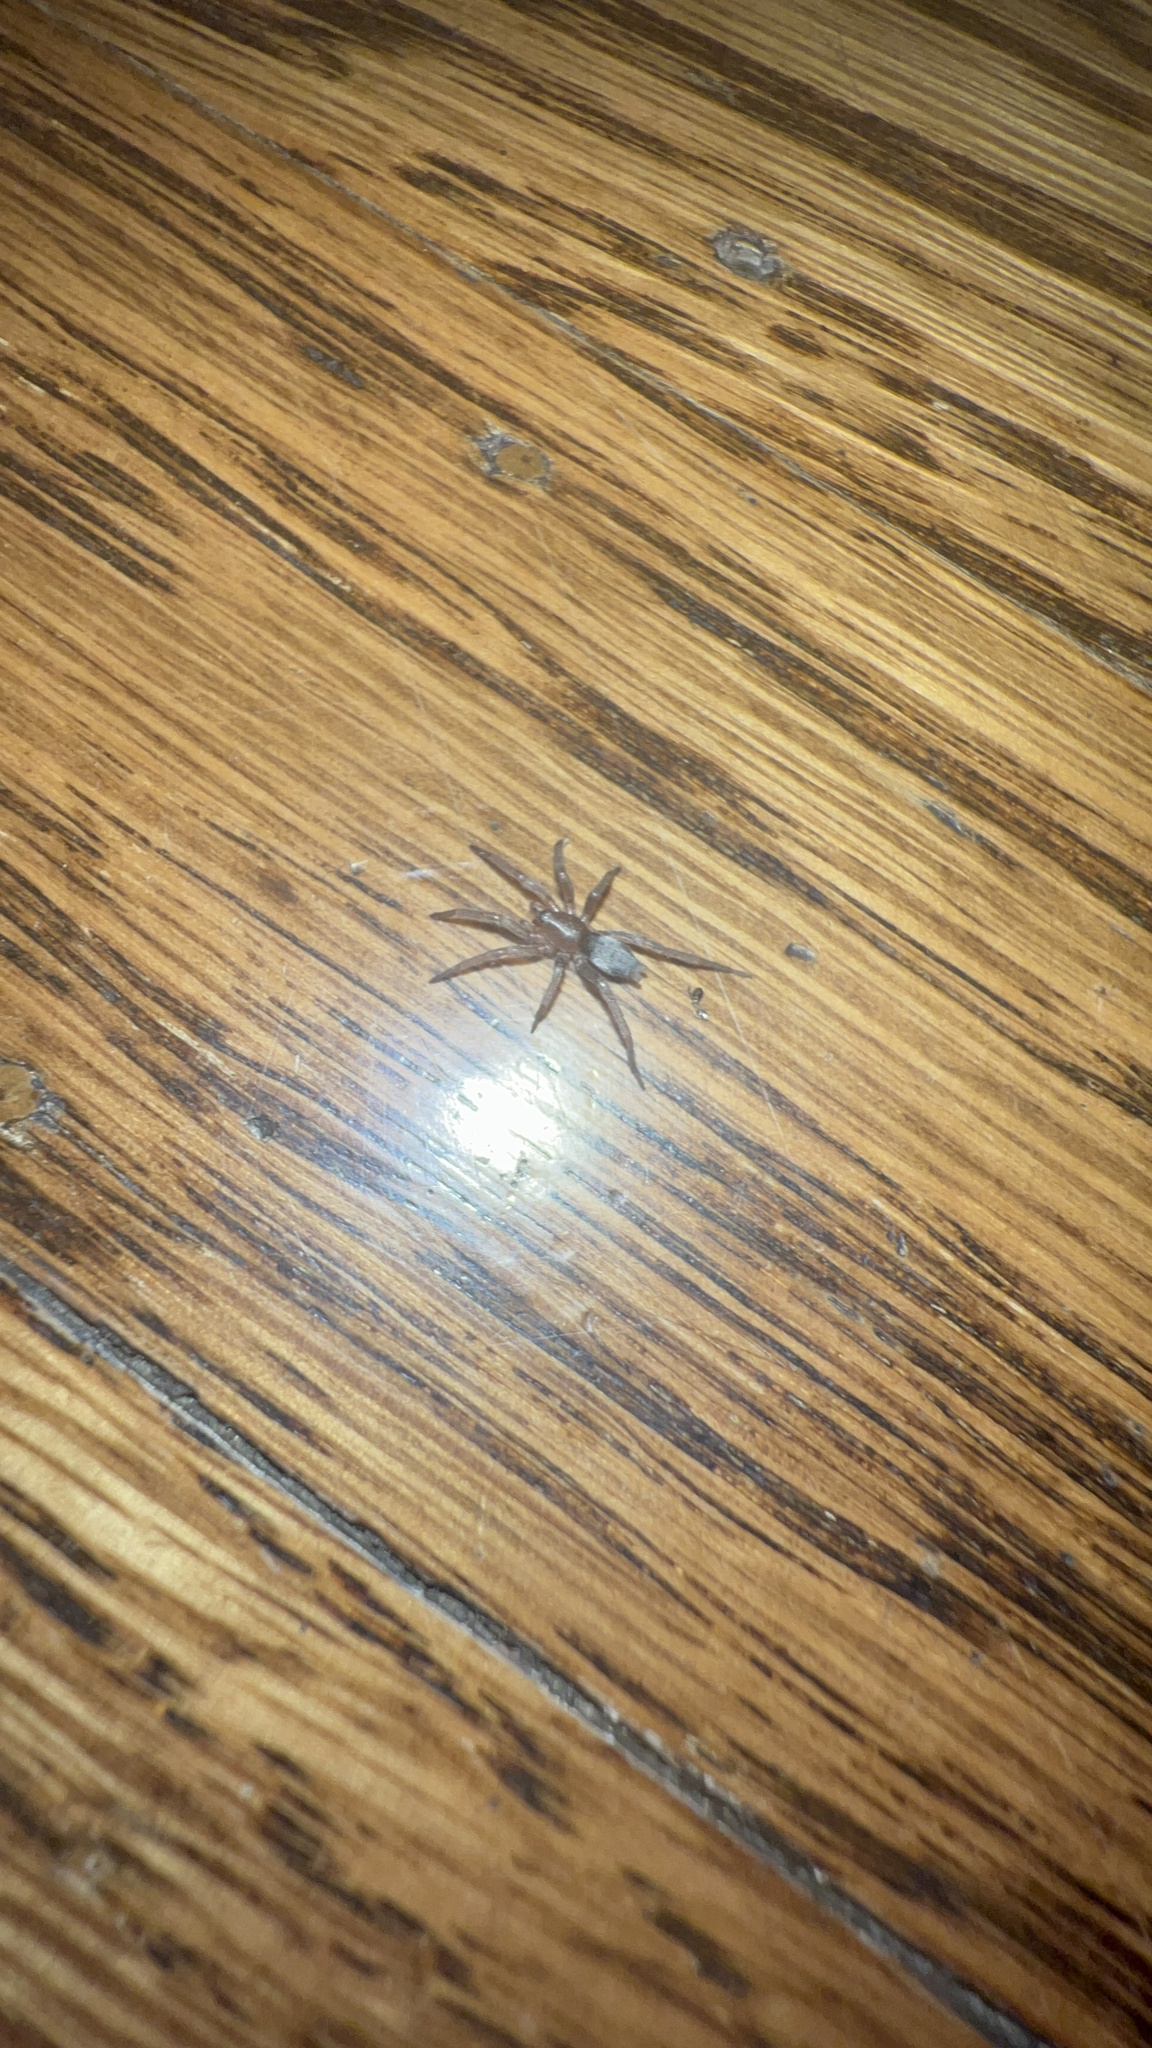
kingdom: Animalia
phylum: Arthropoda
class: Arachnida
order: Araneae
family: Gnaphosidae
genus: Scotophaeus
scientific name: Scotophaeus blackwalli
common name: Mouse spider
